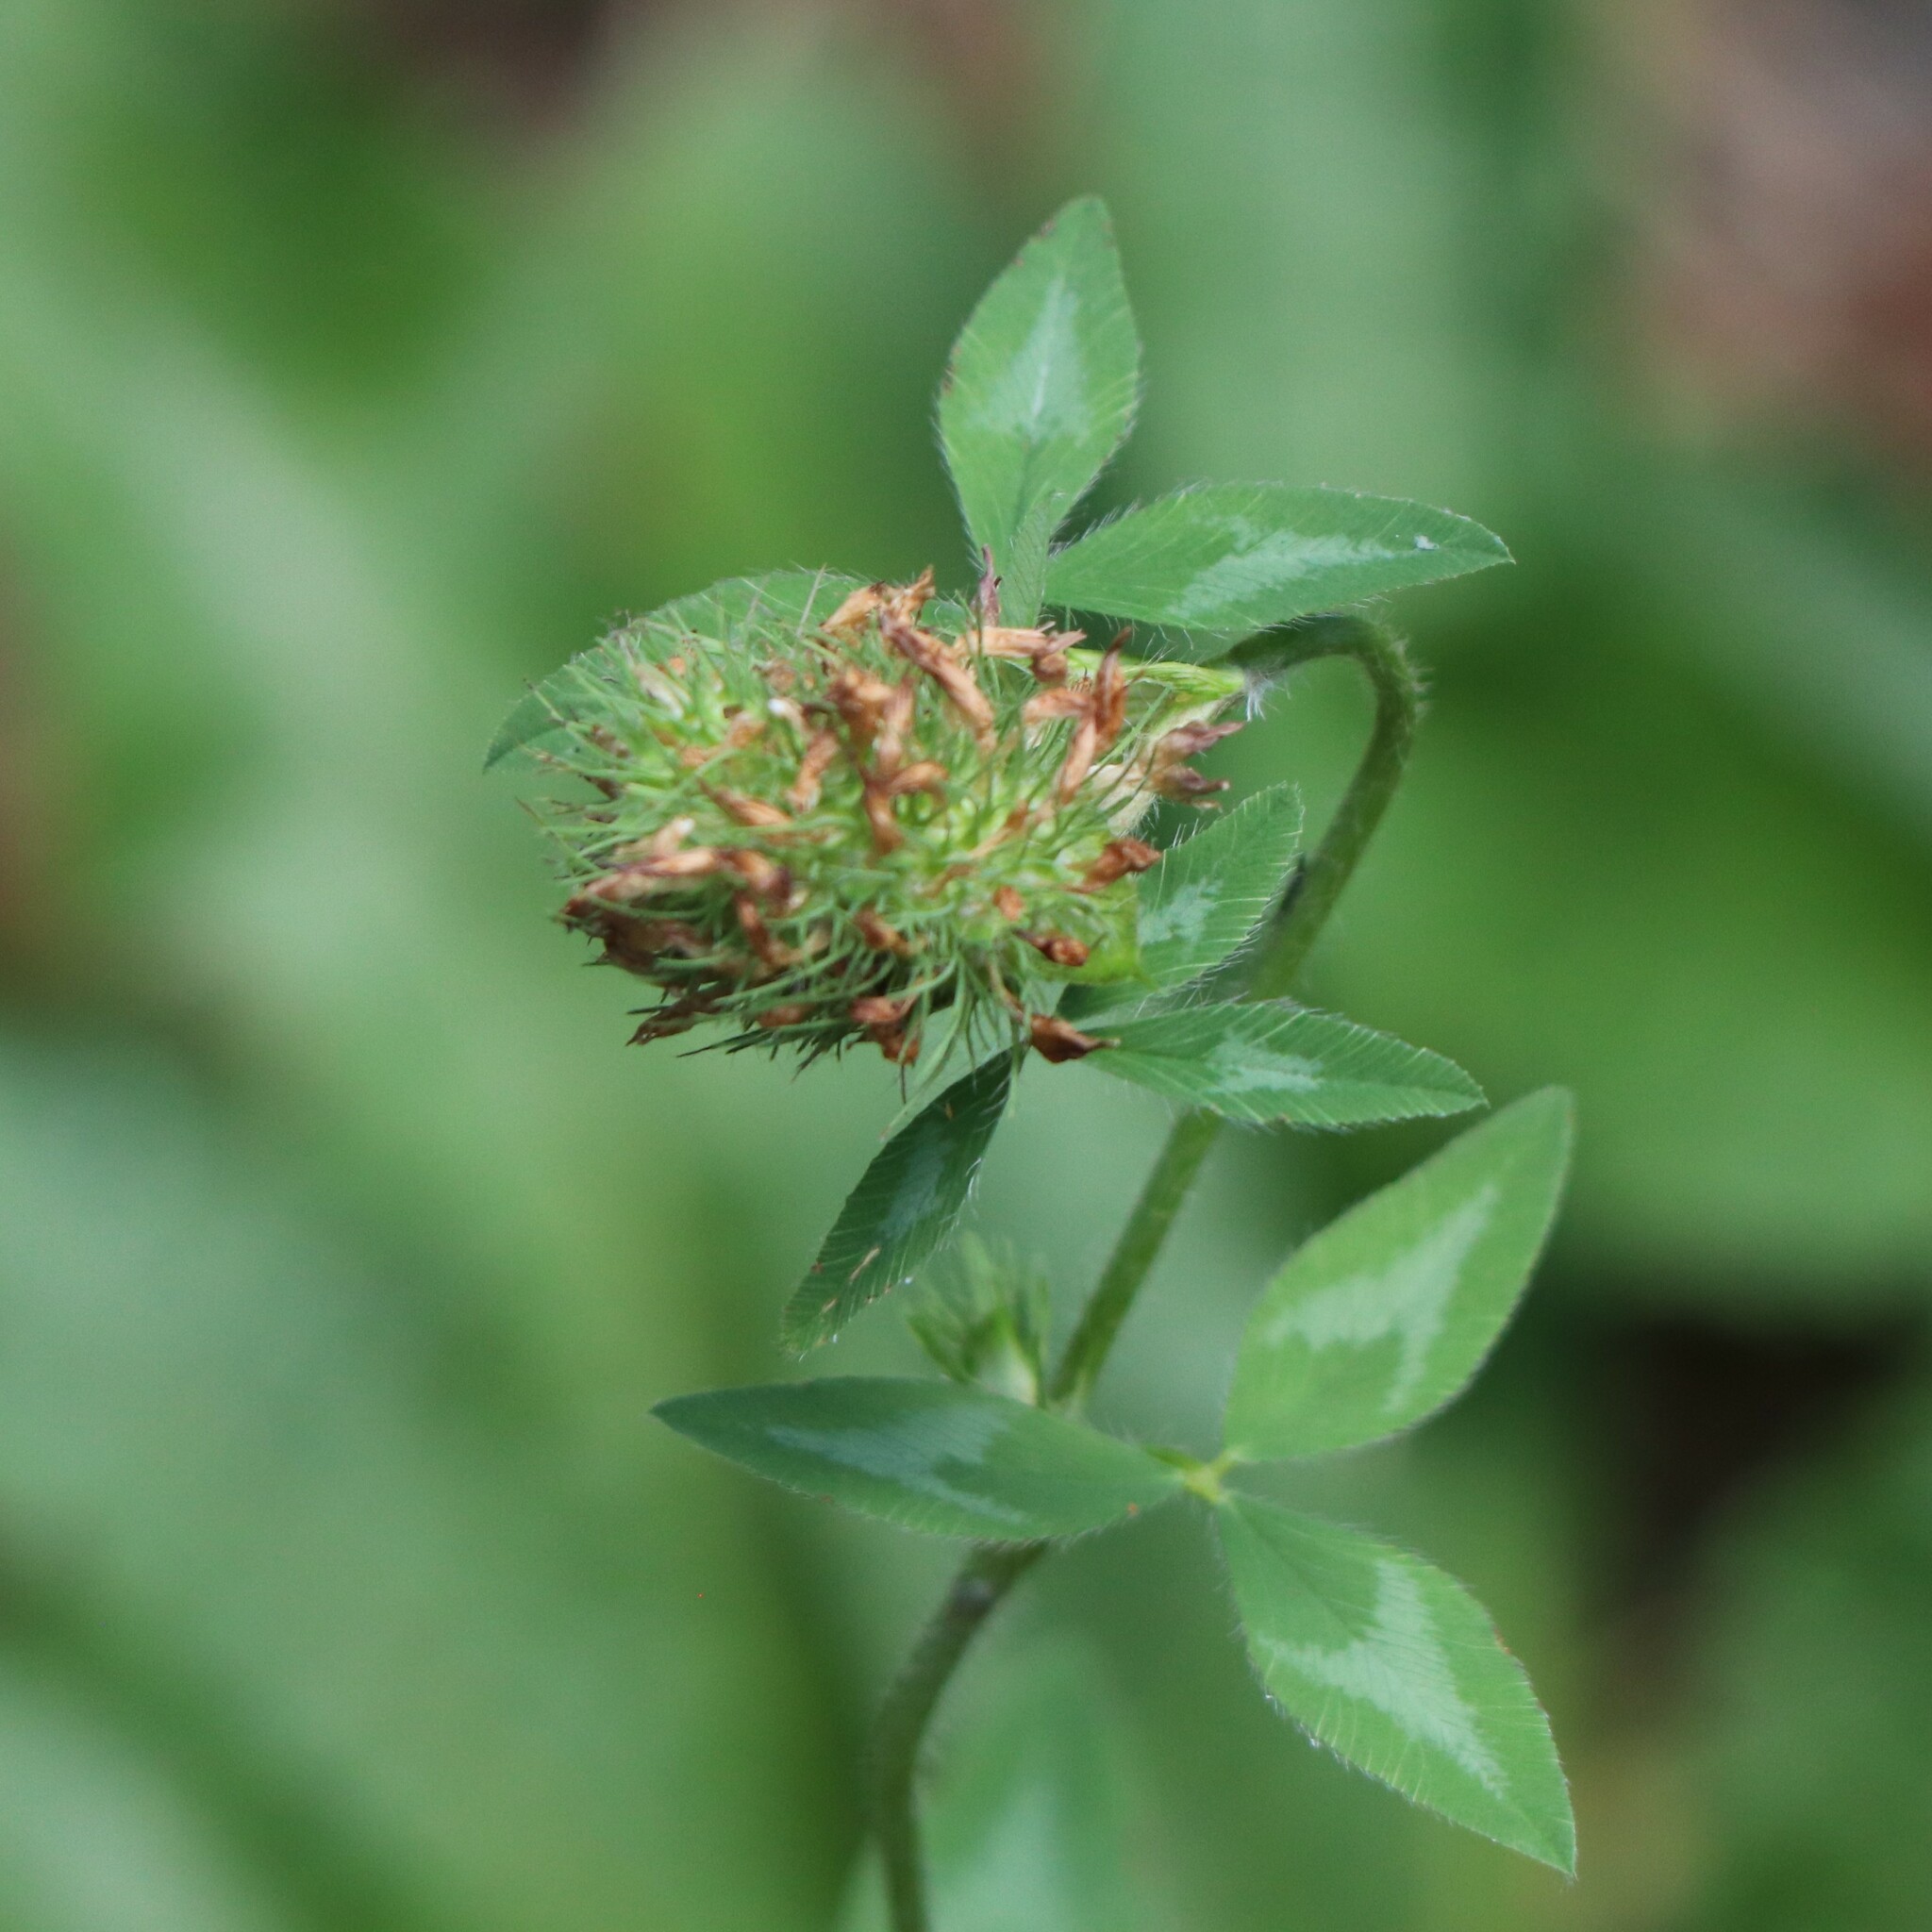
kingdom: Plantae
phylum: Tracheophyta
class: Magnoliopsida
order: Fabales
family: Fabaceae
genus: Trifolium
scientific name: Trifolium pratense
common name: Red clover
